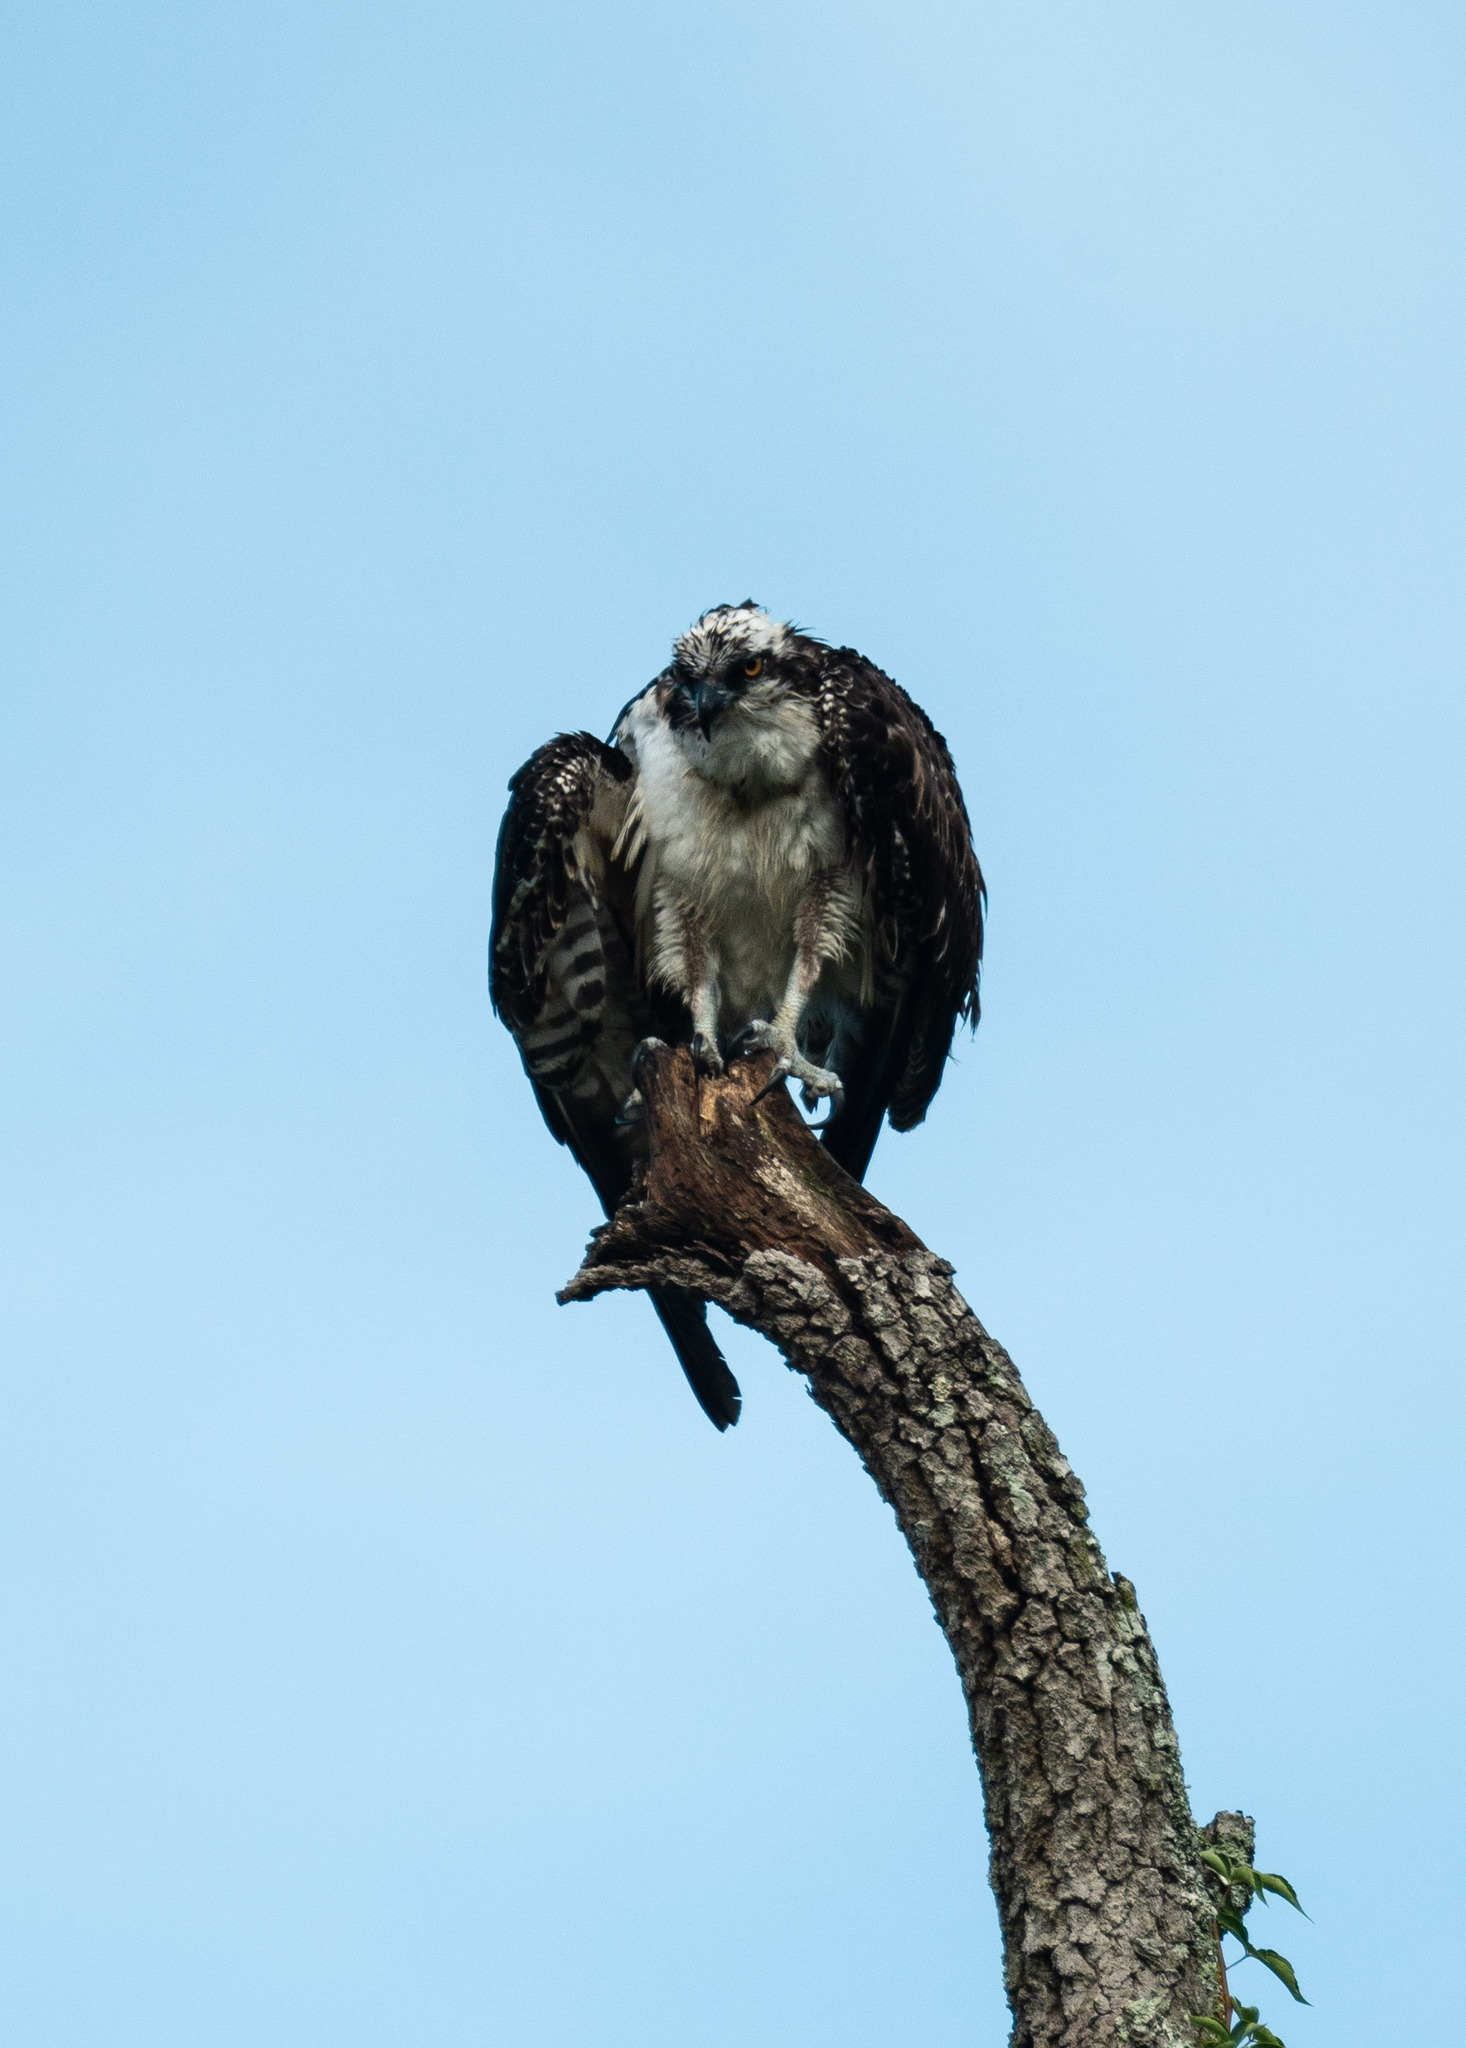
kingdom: Animalia
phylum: Chordata
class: Aves
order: Accipitriformes
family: Pandionidae
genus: Pandion
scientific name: Pandion haliaetus
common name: Osprey
